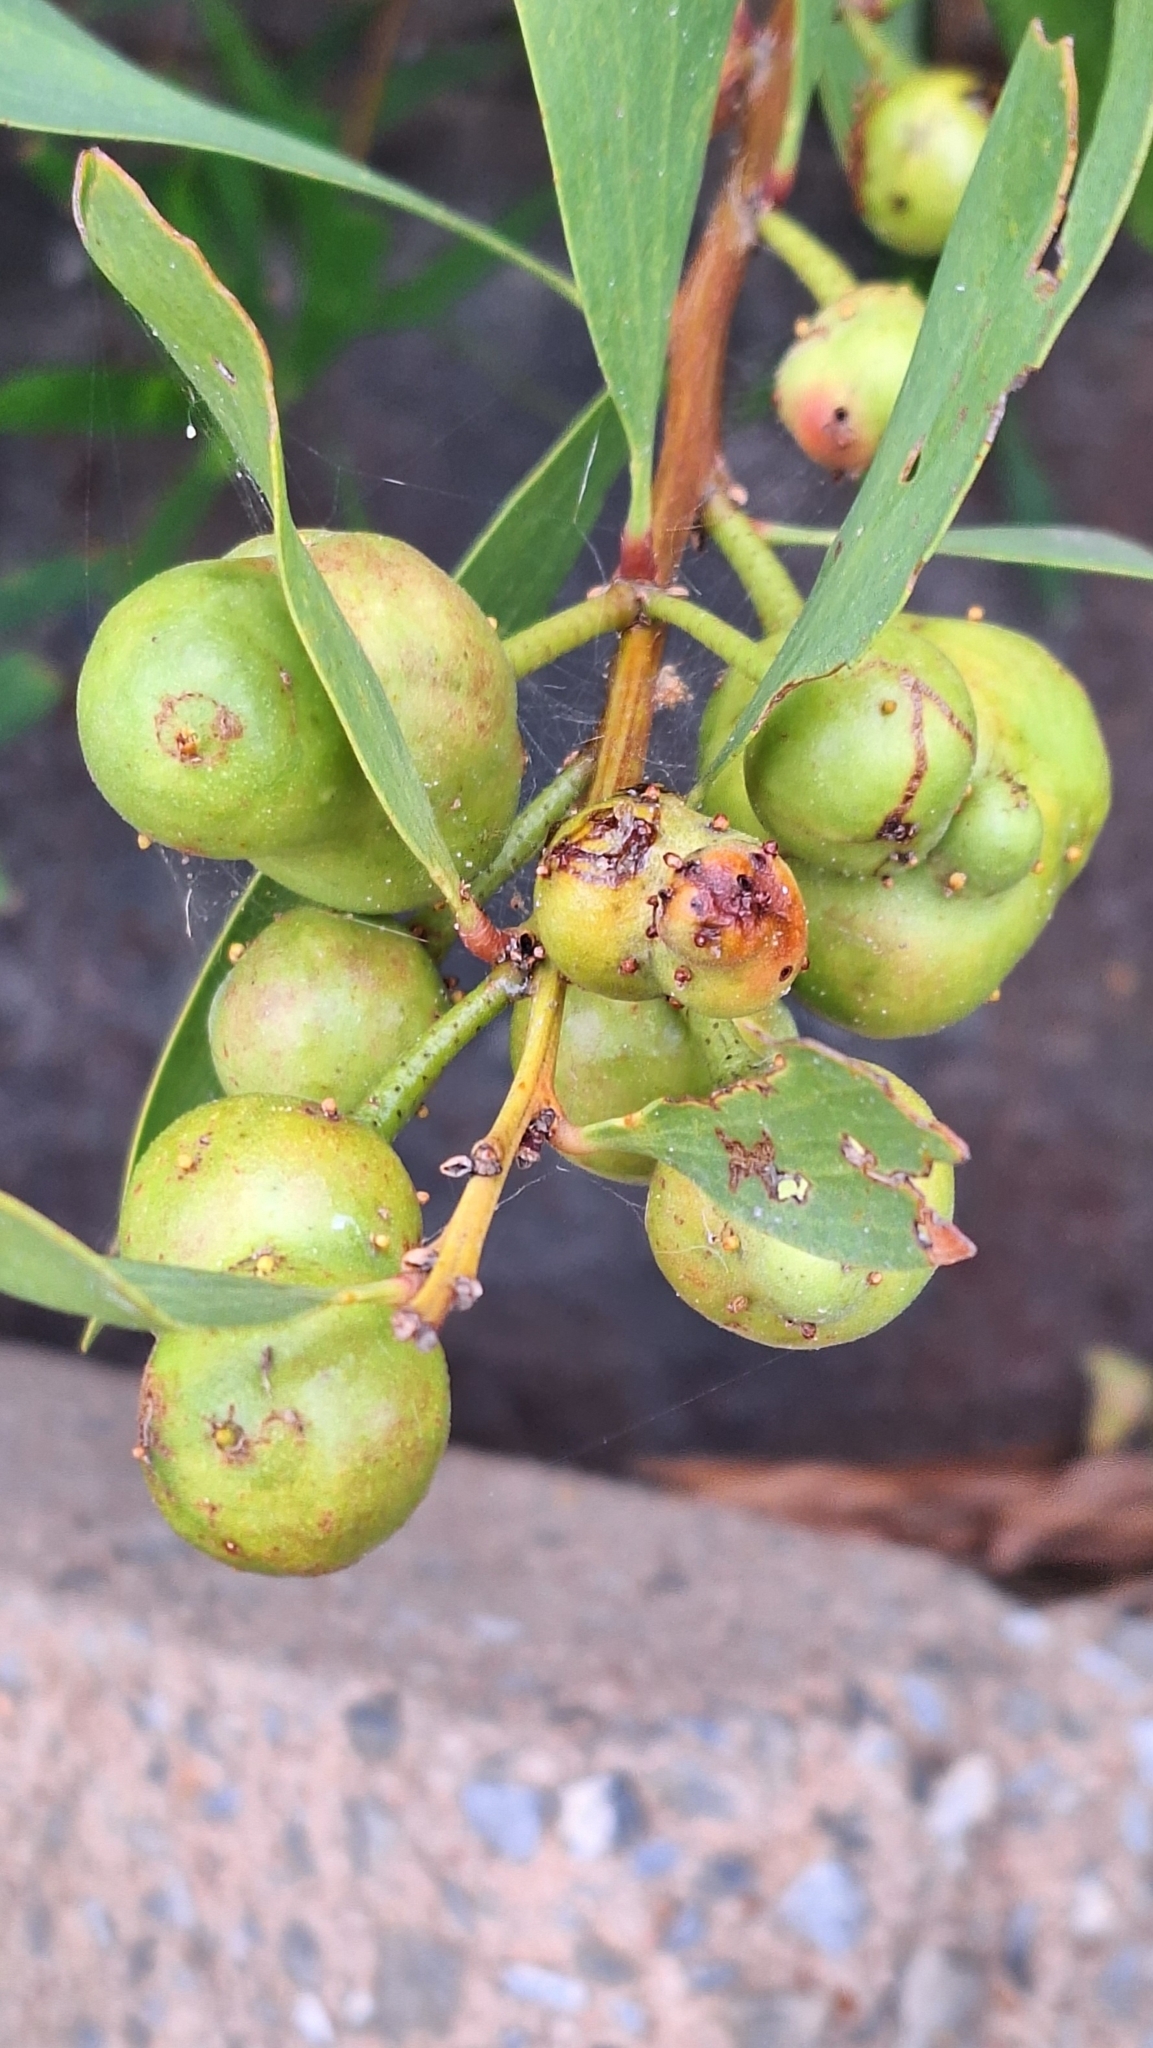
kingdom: Animalia
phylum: Arthropoda
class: Insecta
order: Hymenoptera
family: Pteromalidae
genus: Trichilogaster
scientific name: Trichilogaster acaciaelongifoliae
